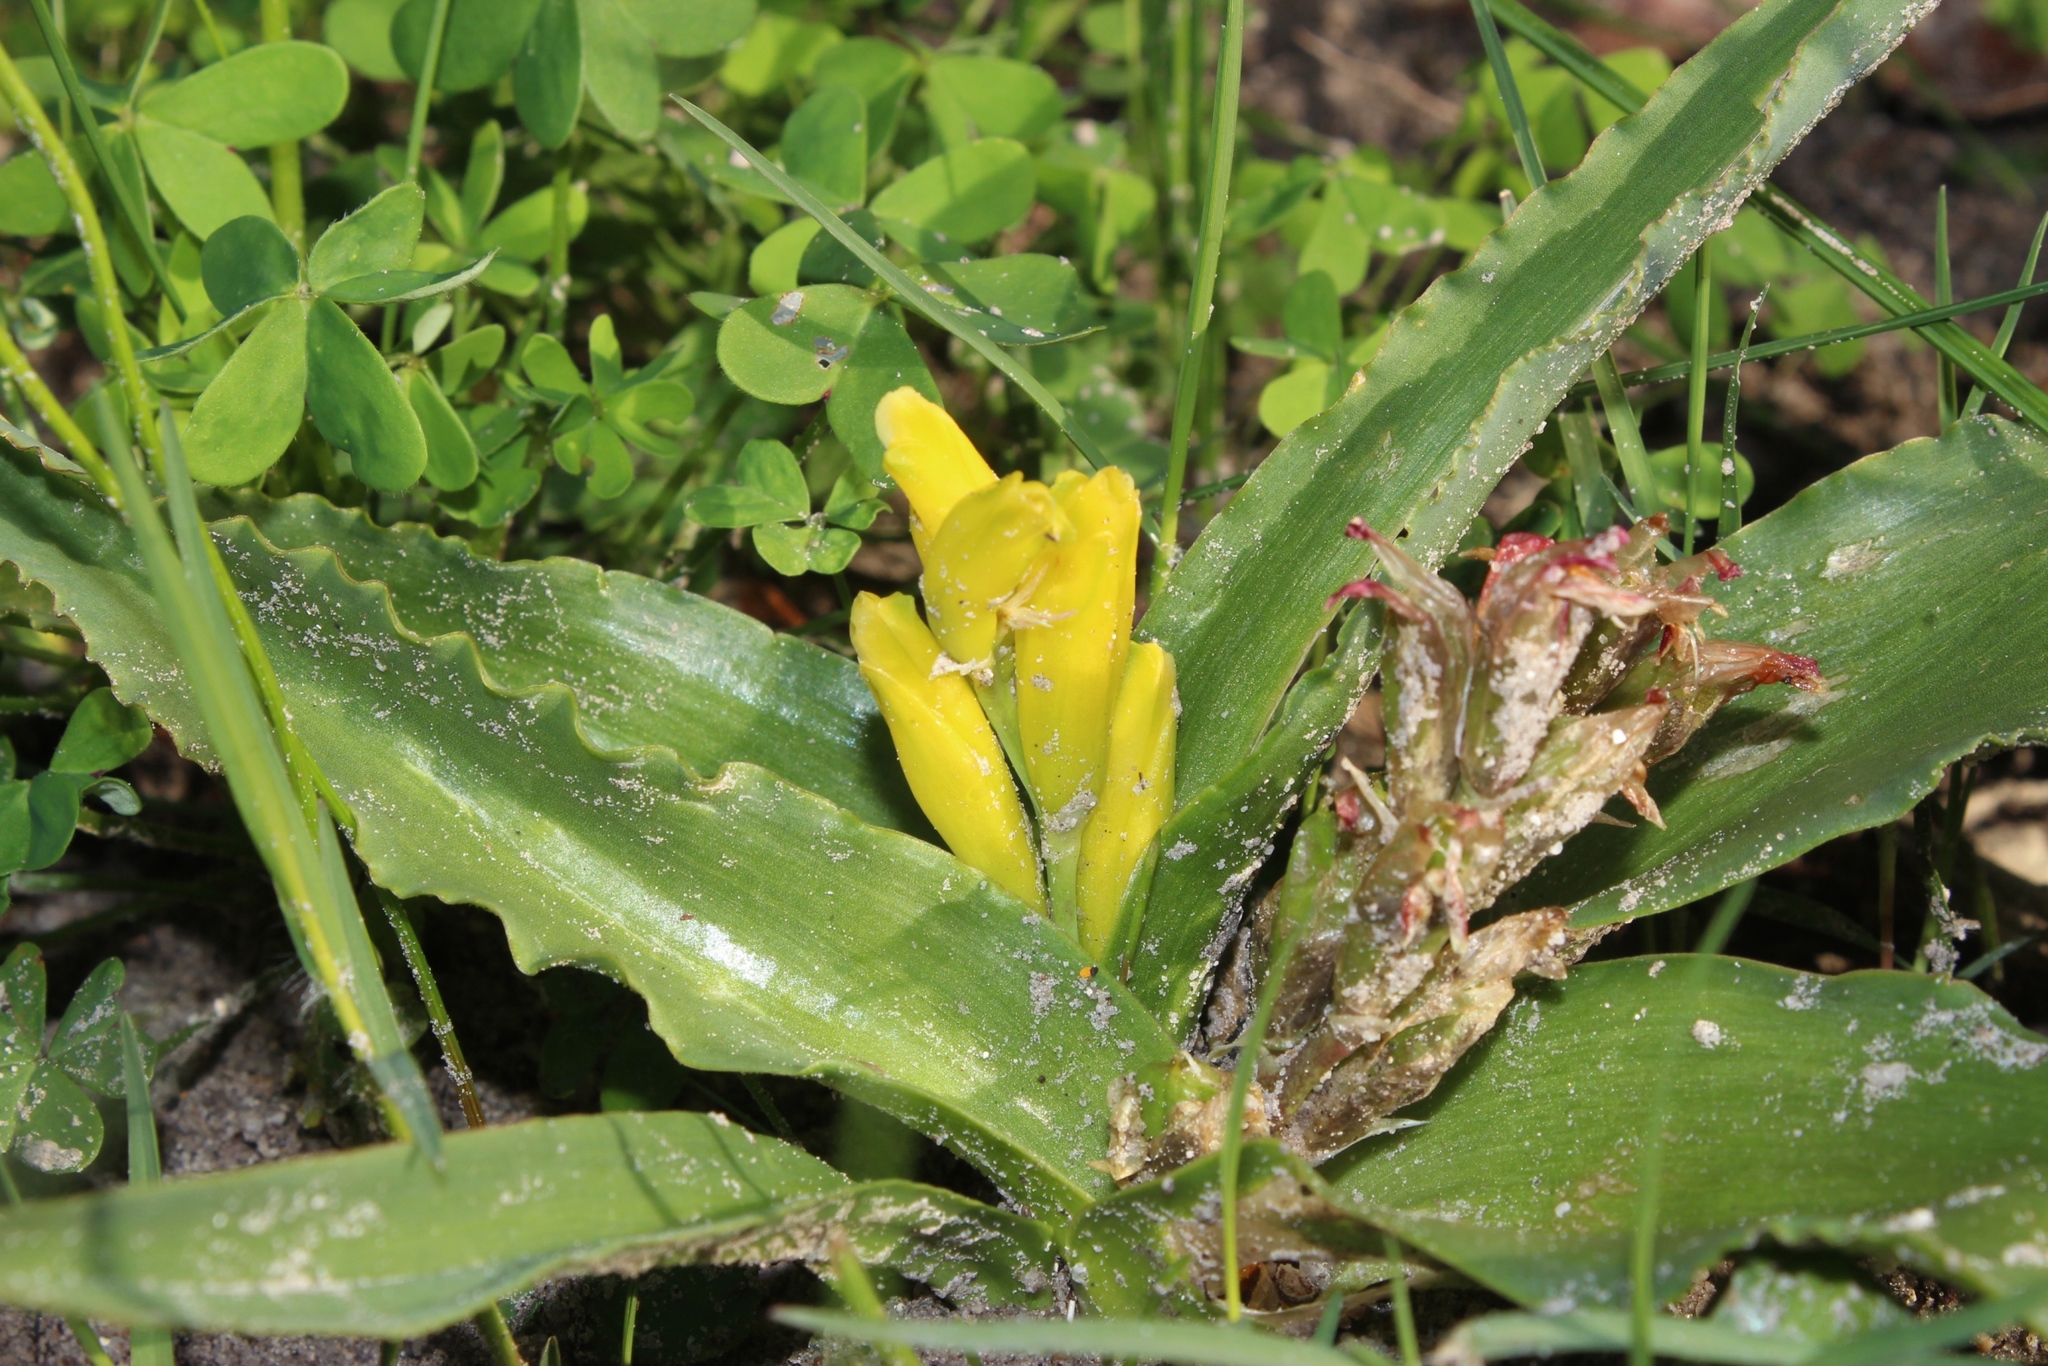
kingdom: Plantae
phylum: Tracheophyta
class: Liliopsida
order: Asparagales
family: Asparagaceae
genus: Lachenalia
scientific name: Lachenalia reflexa
